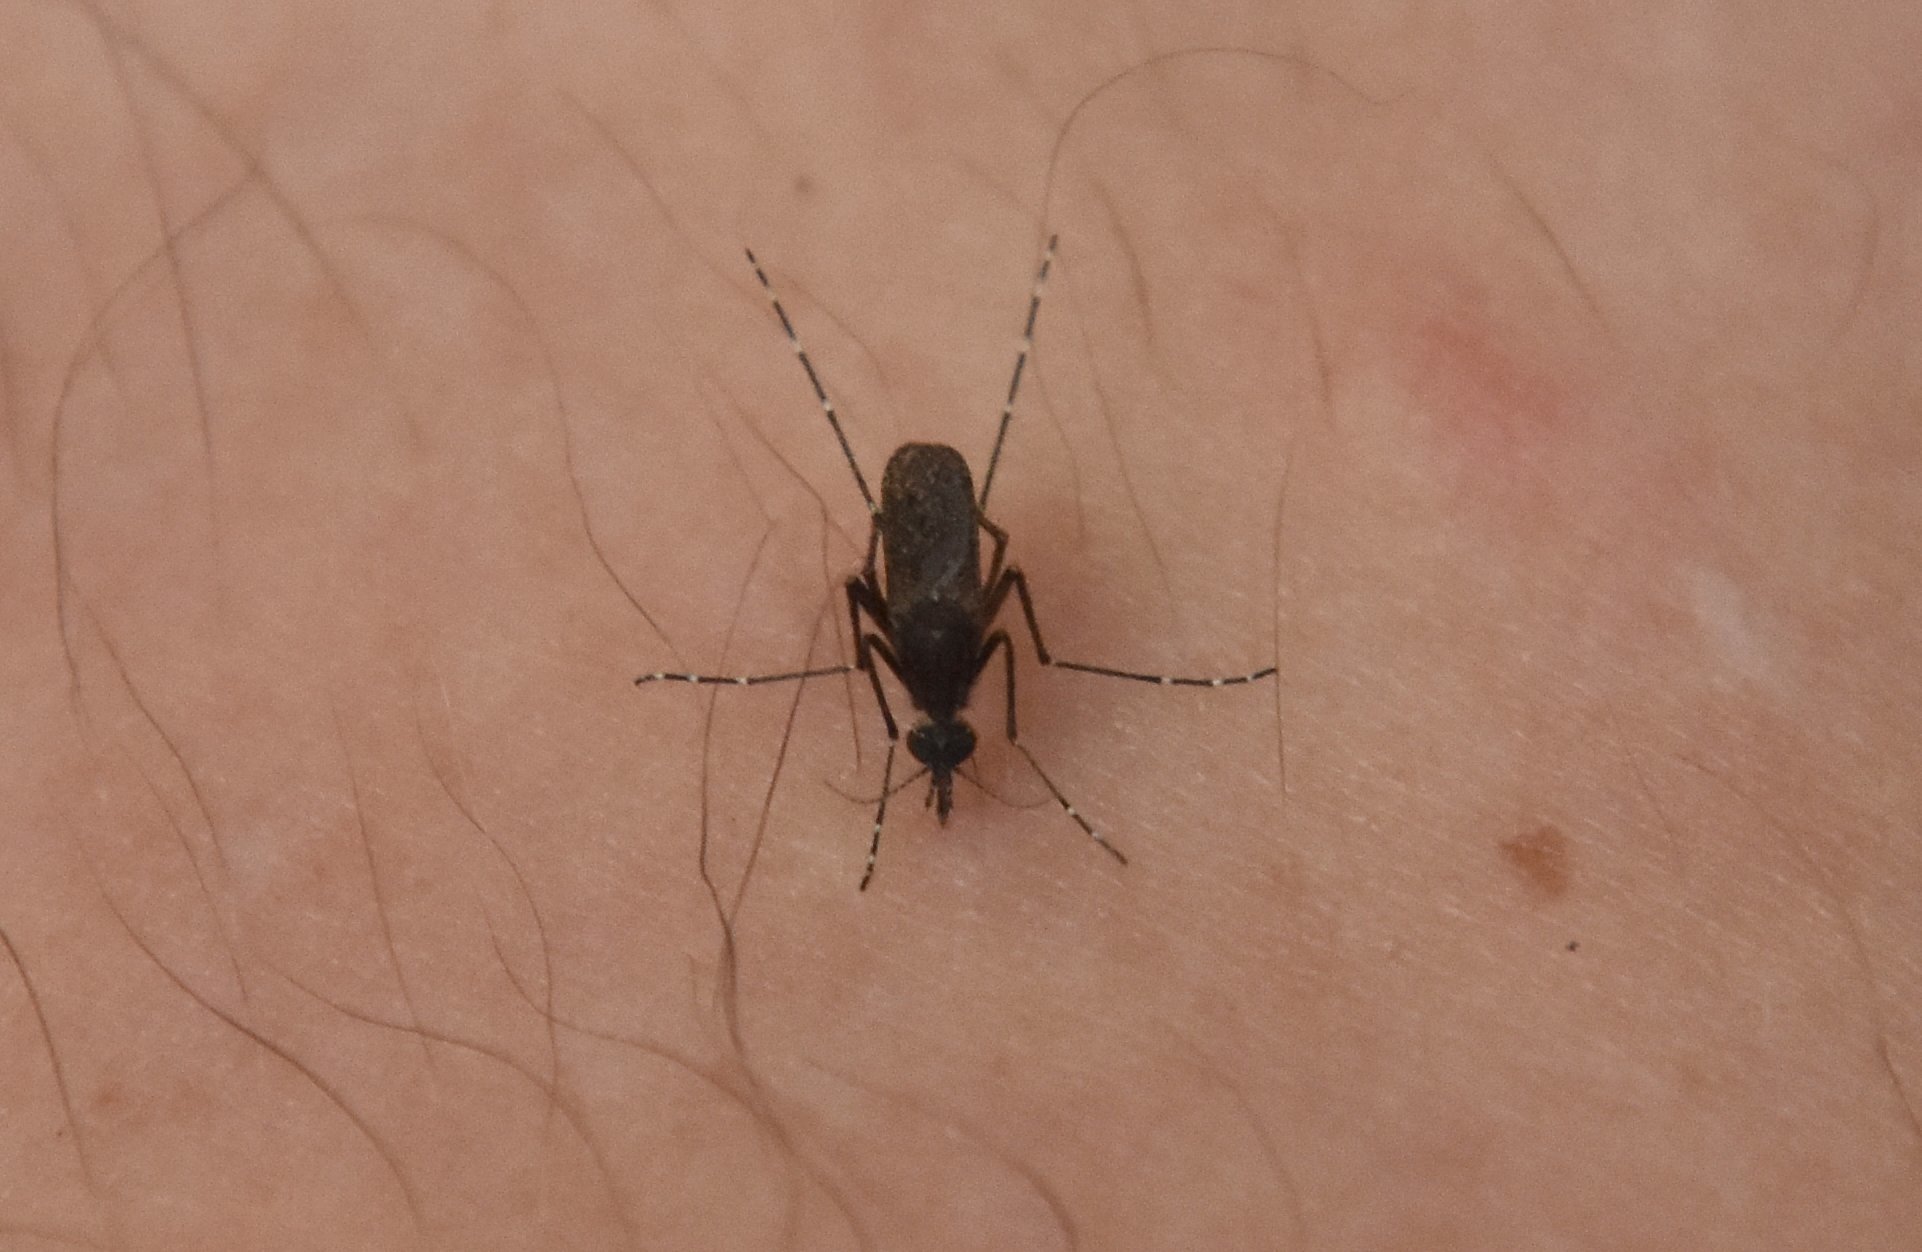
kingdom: Animalia
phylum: Arthropoda
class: Insecta
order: Diptera
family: Culicidae
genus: Mansonia
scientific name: Mansonia titillans
